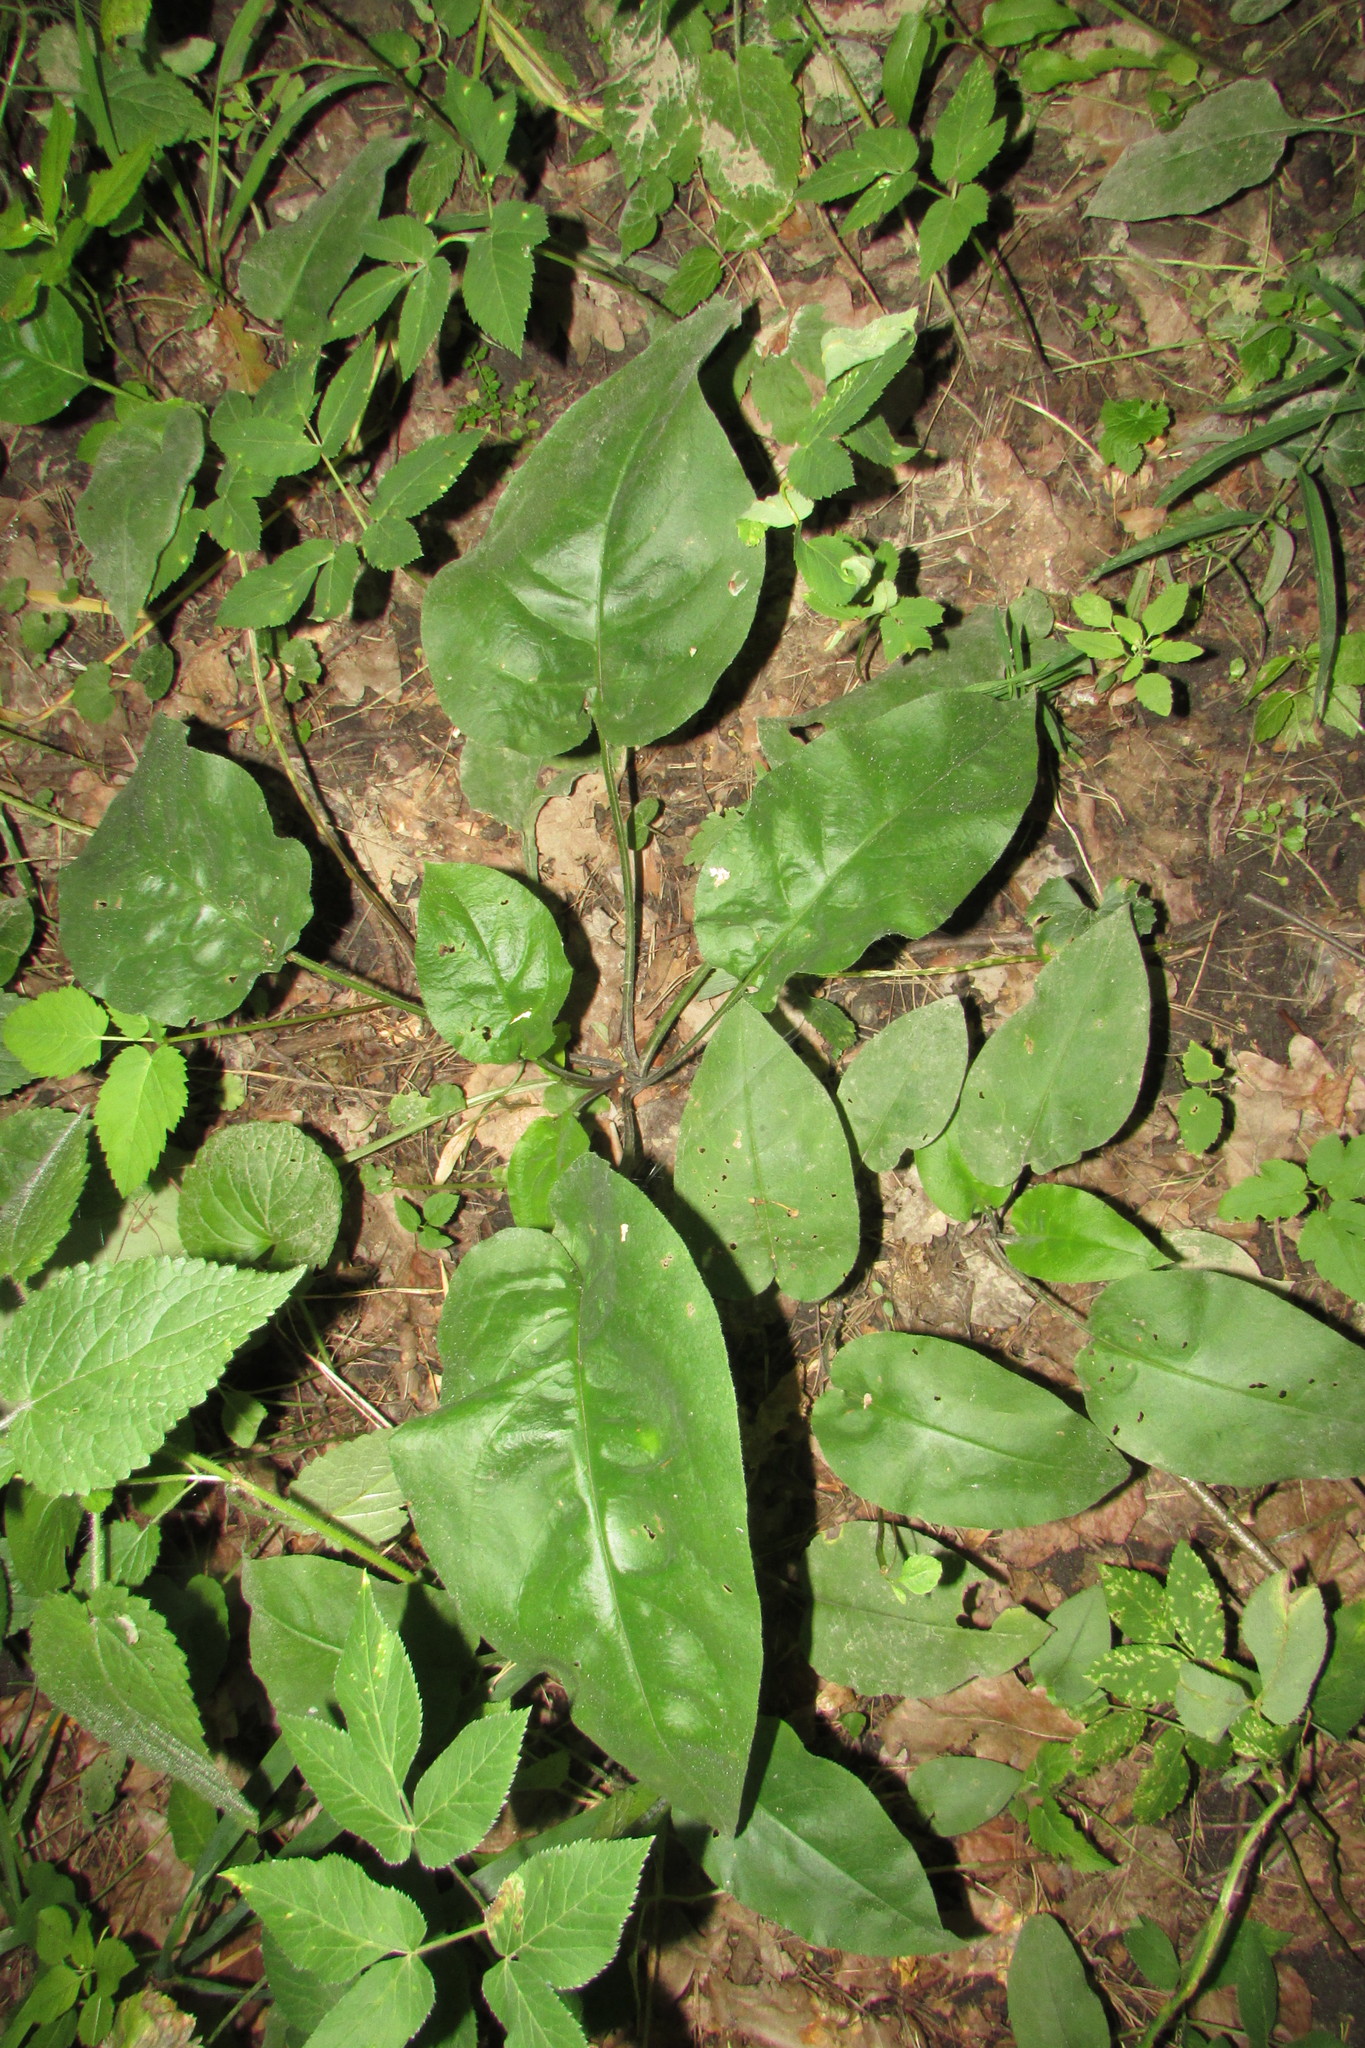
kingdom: Plantae
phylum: Tracheophyta
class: Magnoliopsida
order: Boraginales
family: Boraginaceae
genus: Pulmonaria
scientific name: Pulmonaria obscura
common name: Suffolk lungwort
